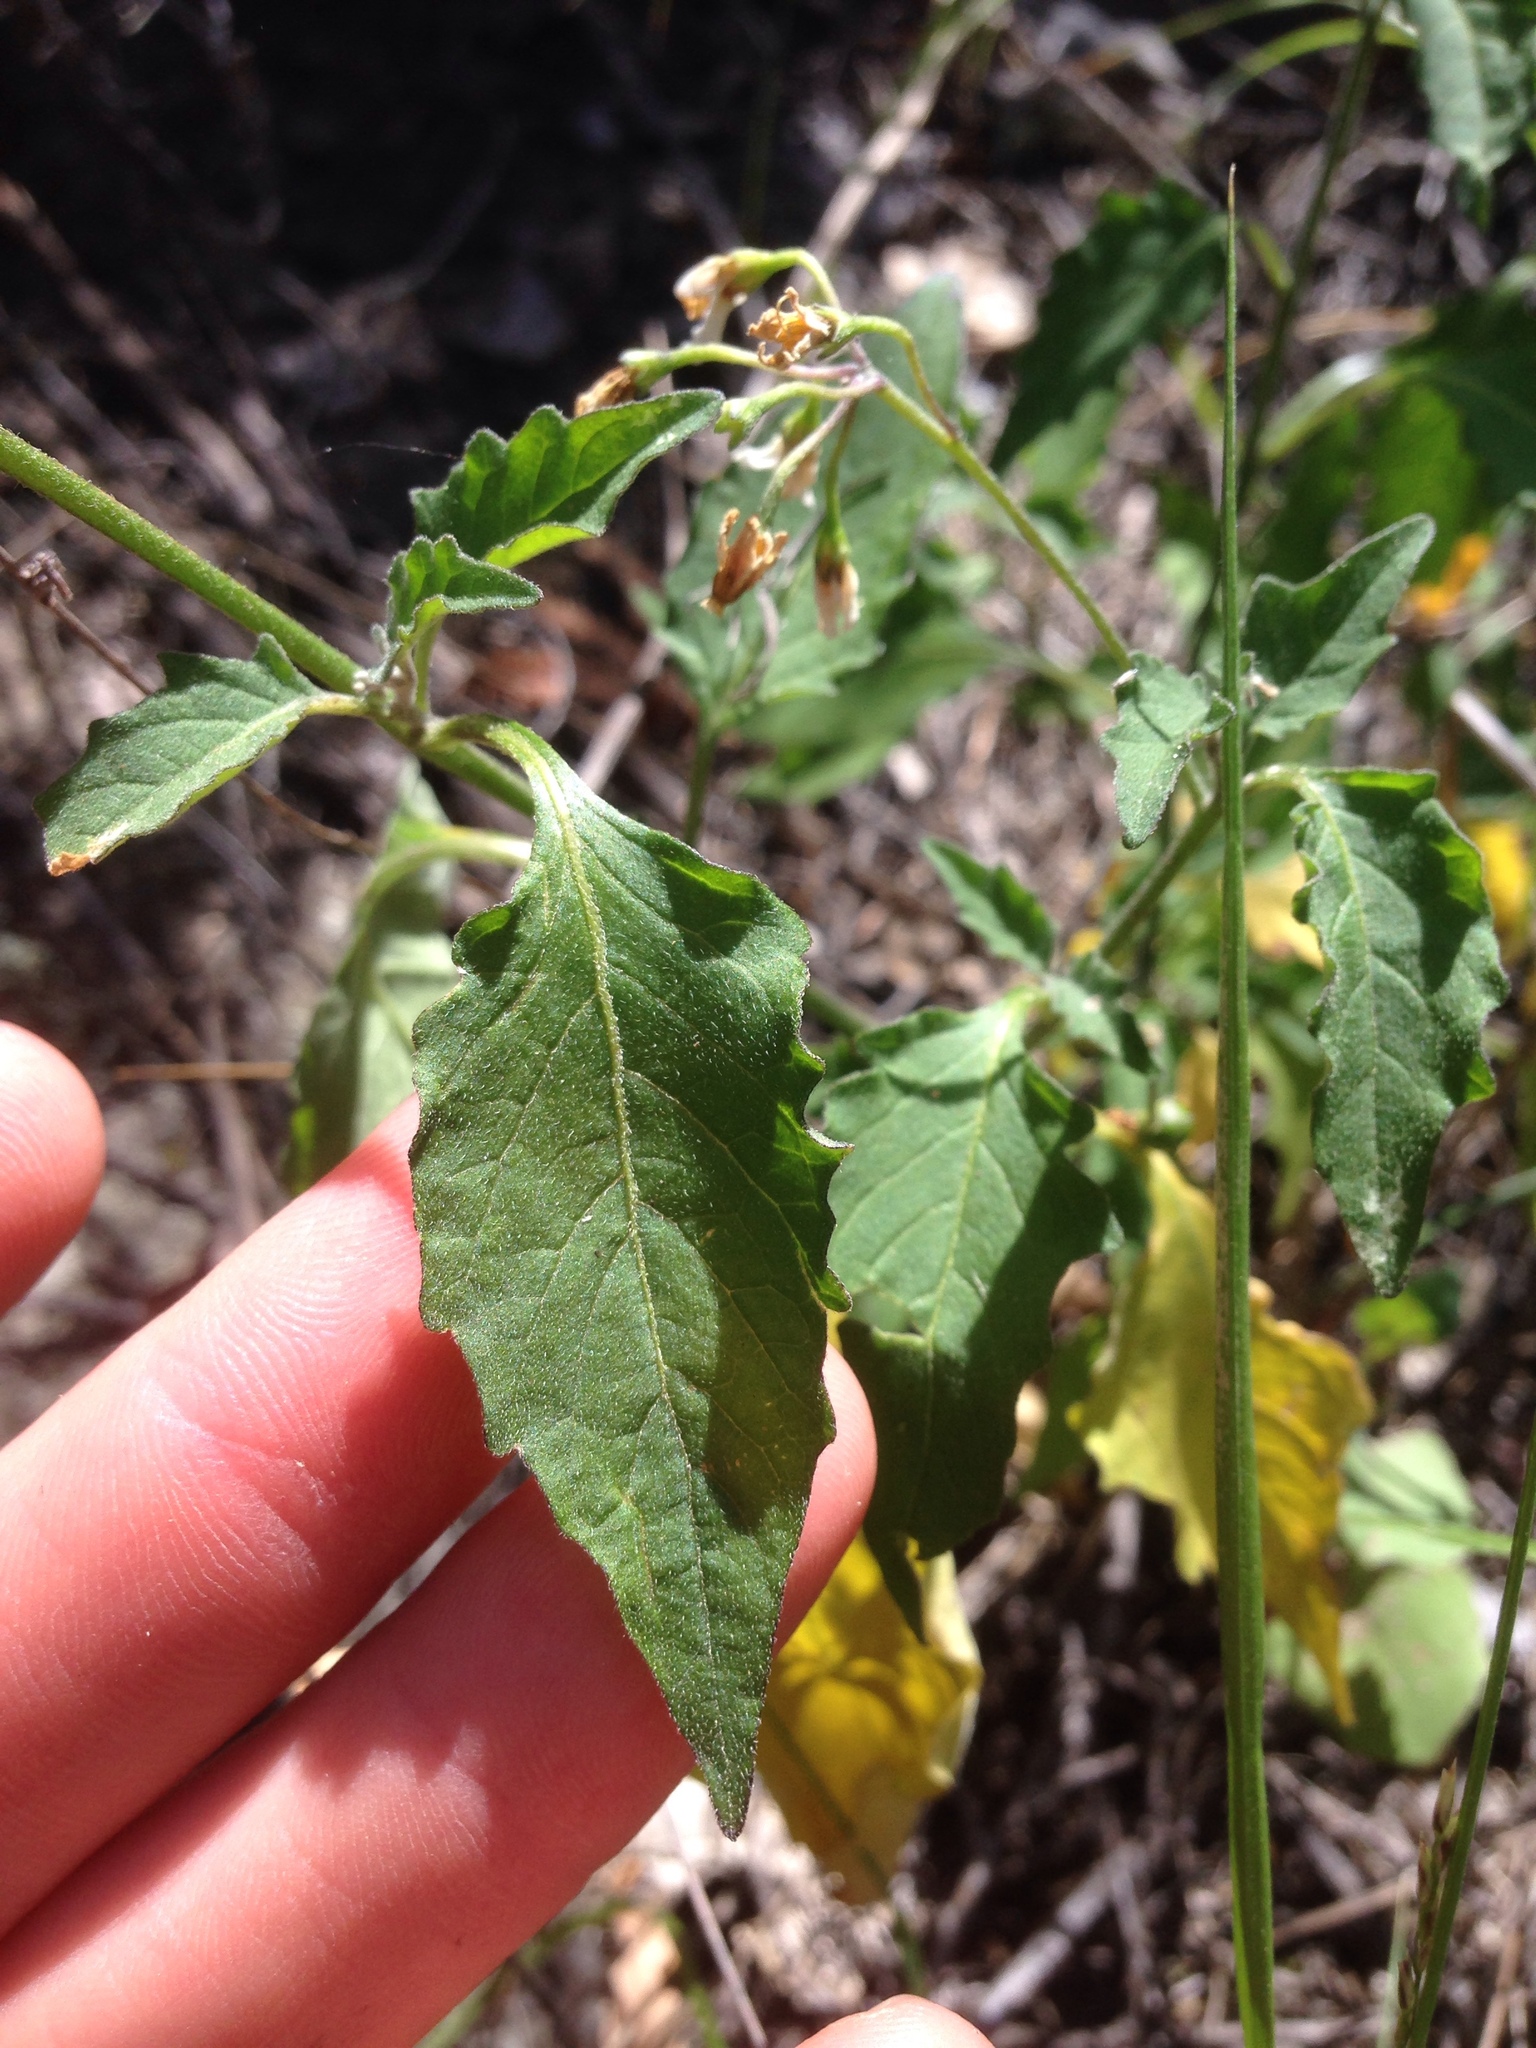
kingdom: Plantae
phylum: Tracheophyta
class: Magnoliopsida
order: Solanales
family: Solanaceae
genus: Solanum
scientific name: Solanum douglasii
